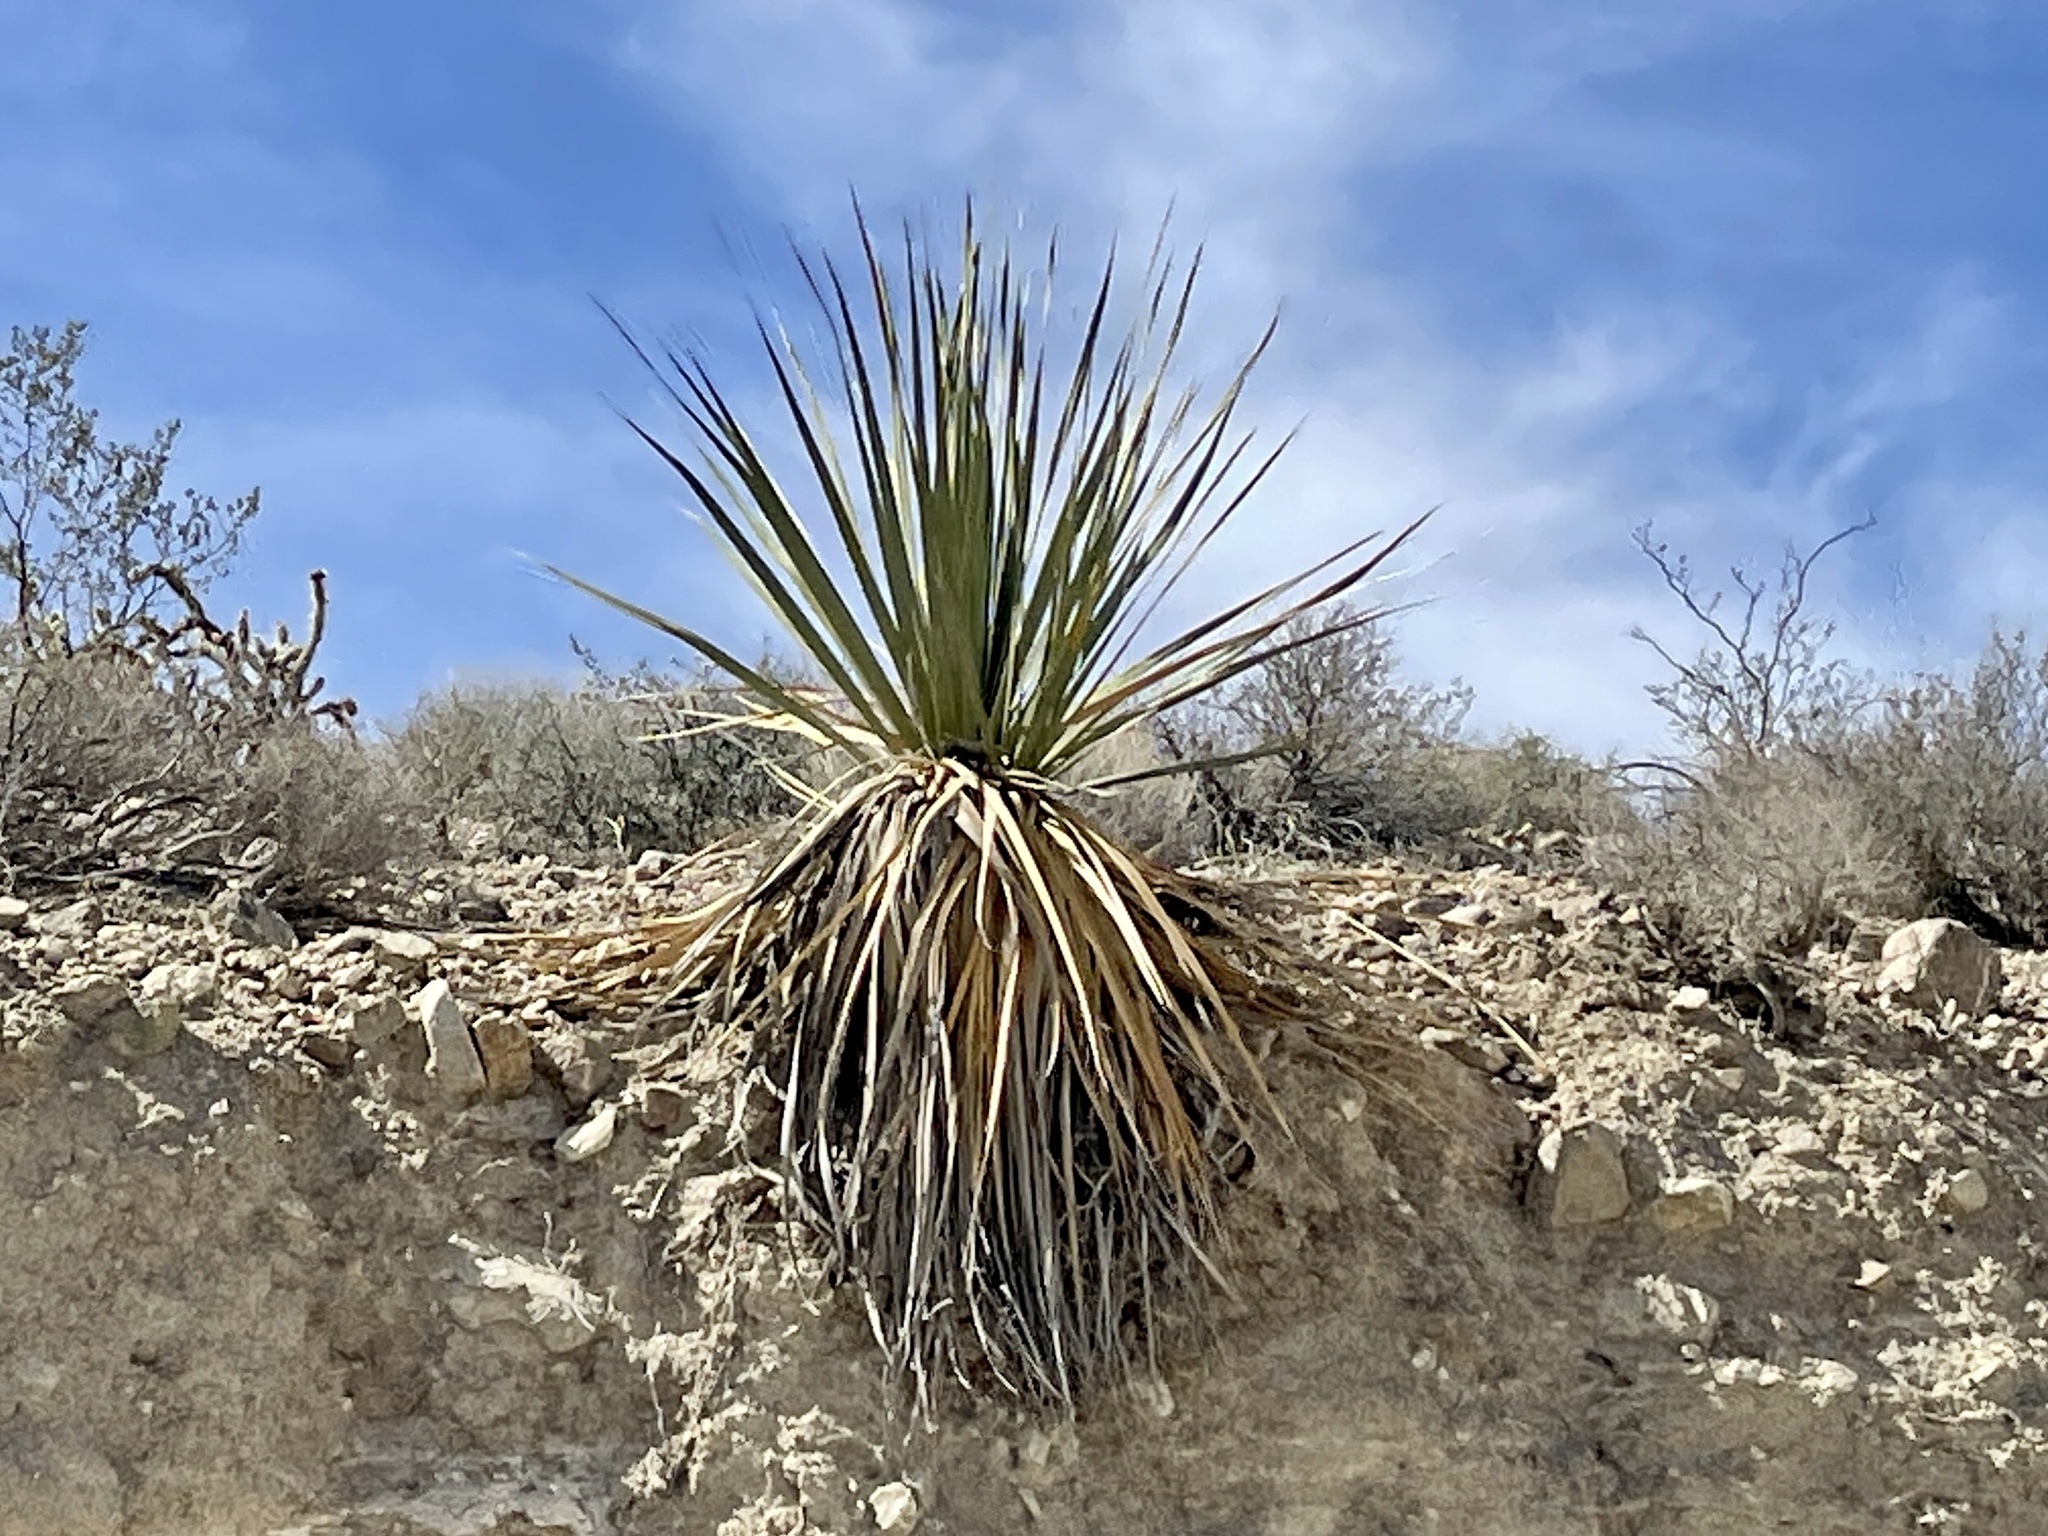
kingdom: Plantae
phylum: Tracheophyta
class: Liliopsida
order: Asparagales
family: Asparagaceae
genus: Nolina
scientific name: Nolina bigelovii
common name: Bigelow bear-grass
